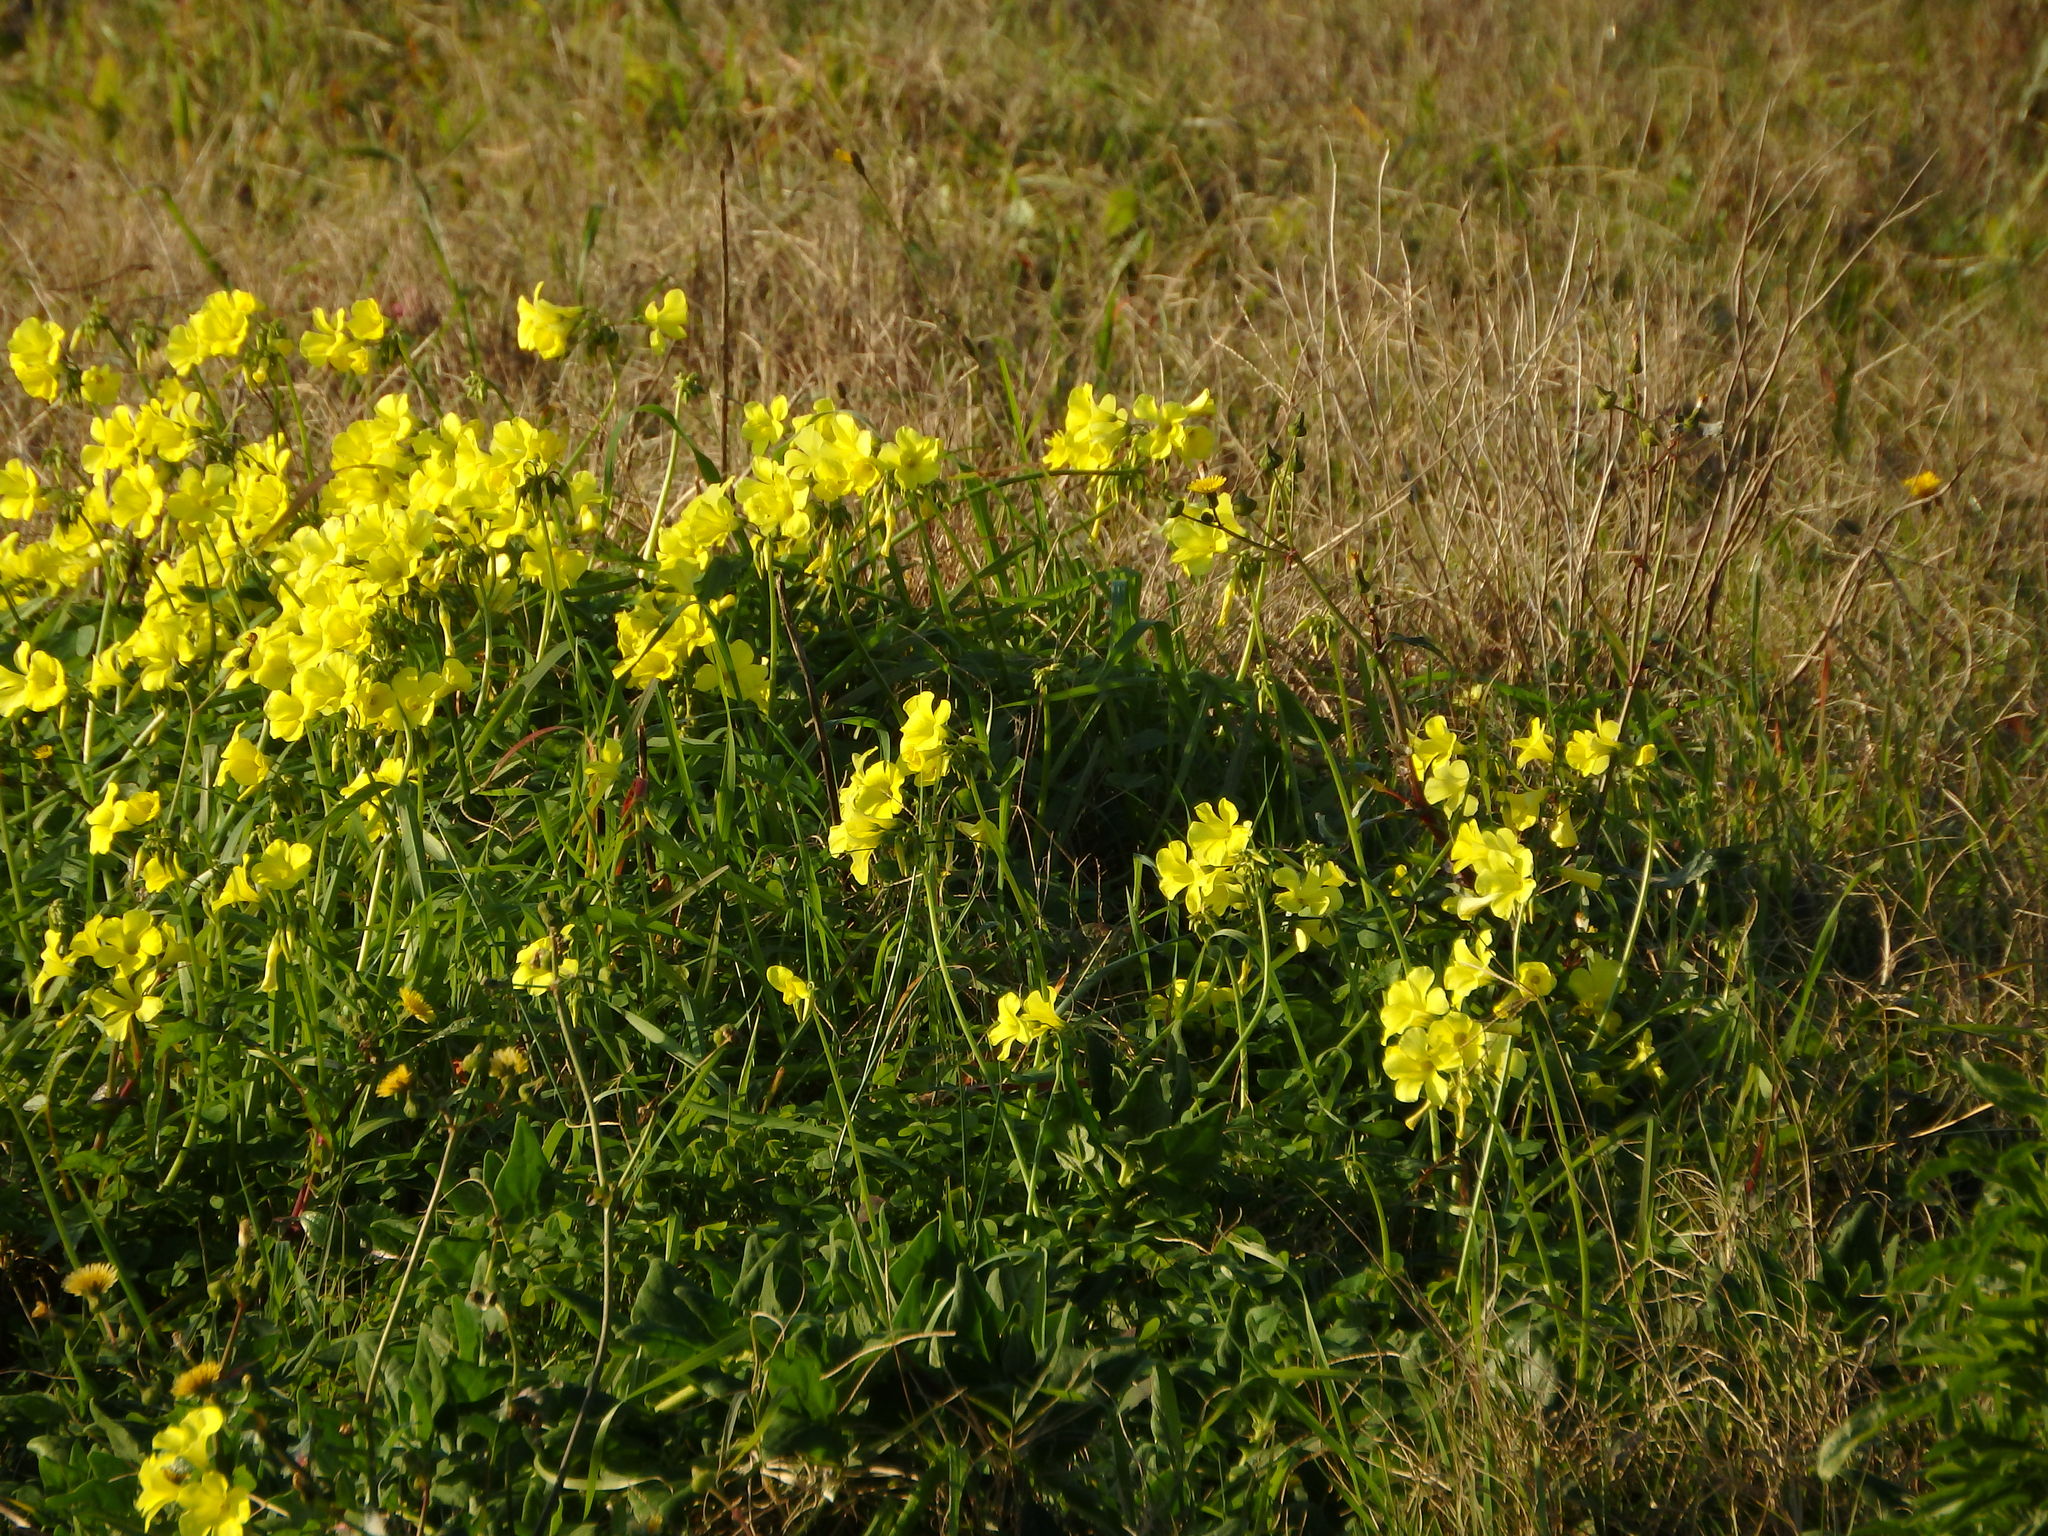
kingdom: Plantae
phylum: Tracheophyta
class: Magnoliopsida
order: Oxalidales
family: Oxalidaceae
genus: Oxalis
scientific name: Oxalis pes-caprae
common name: Bermuda-buttercup
